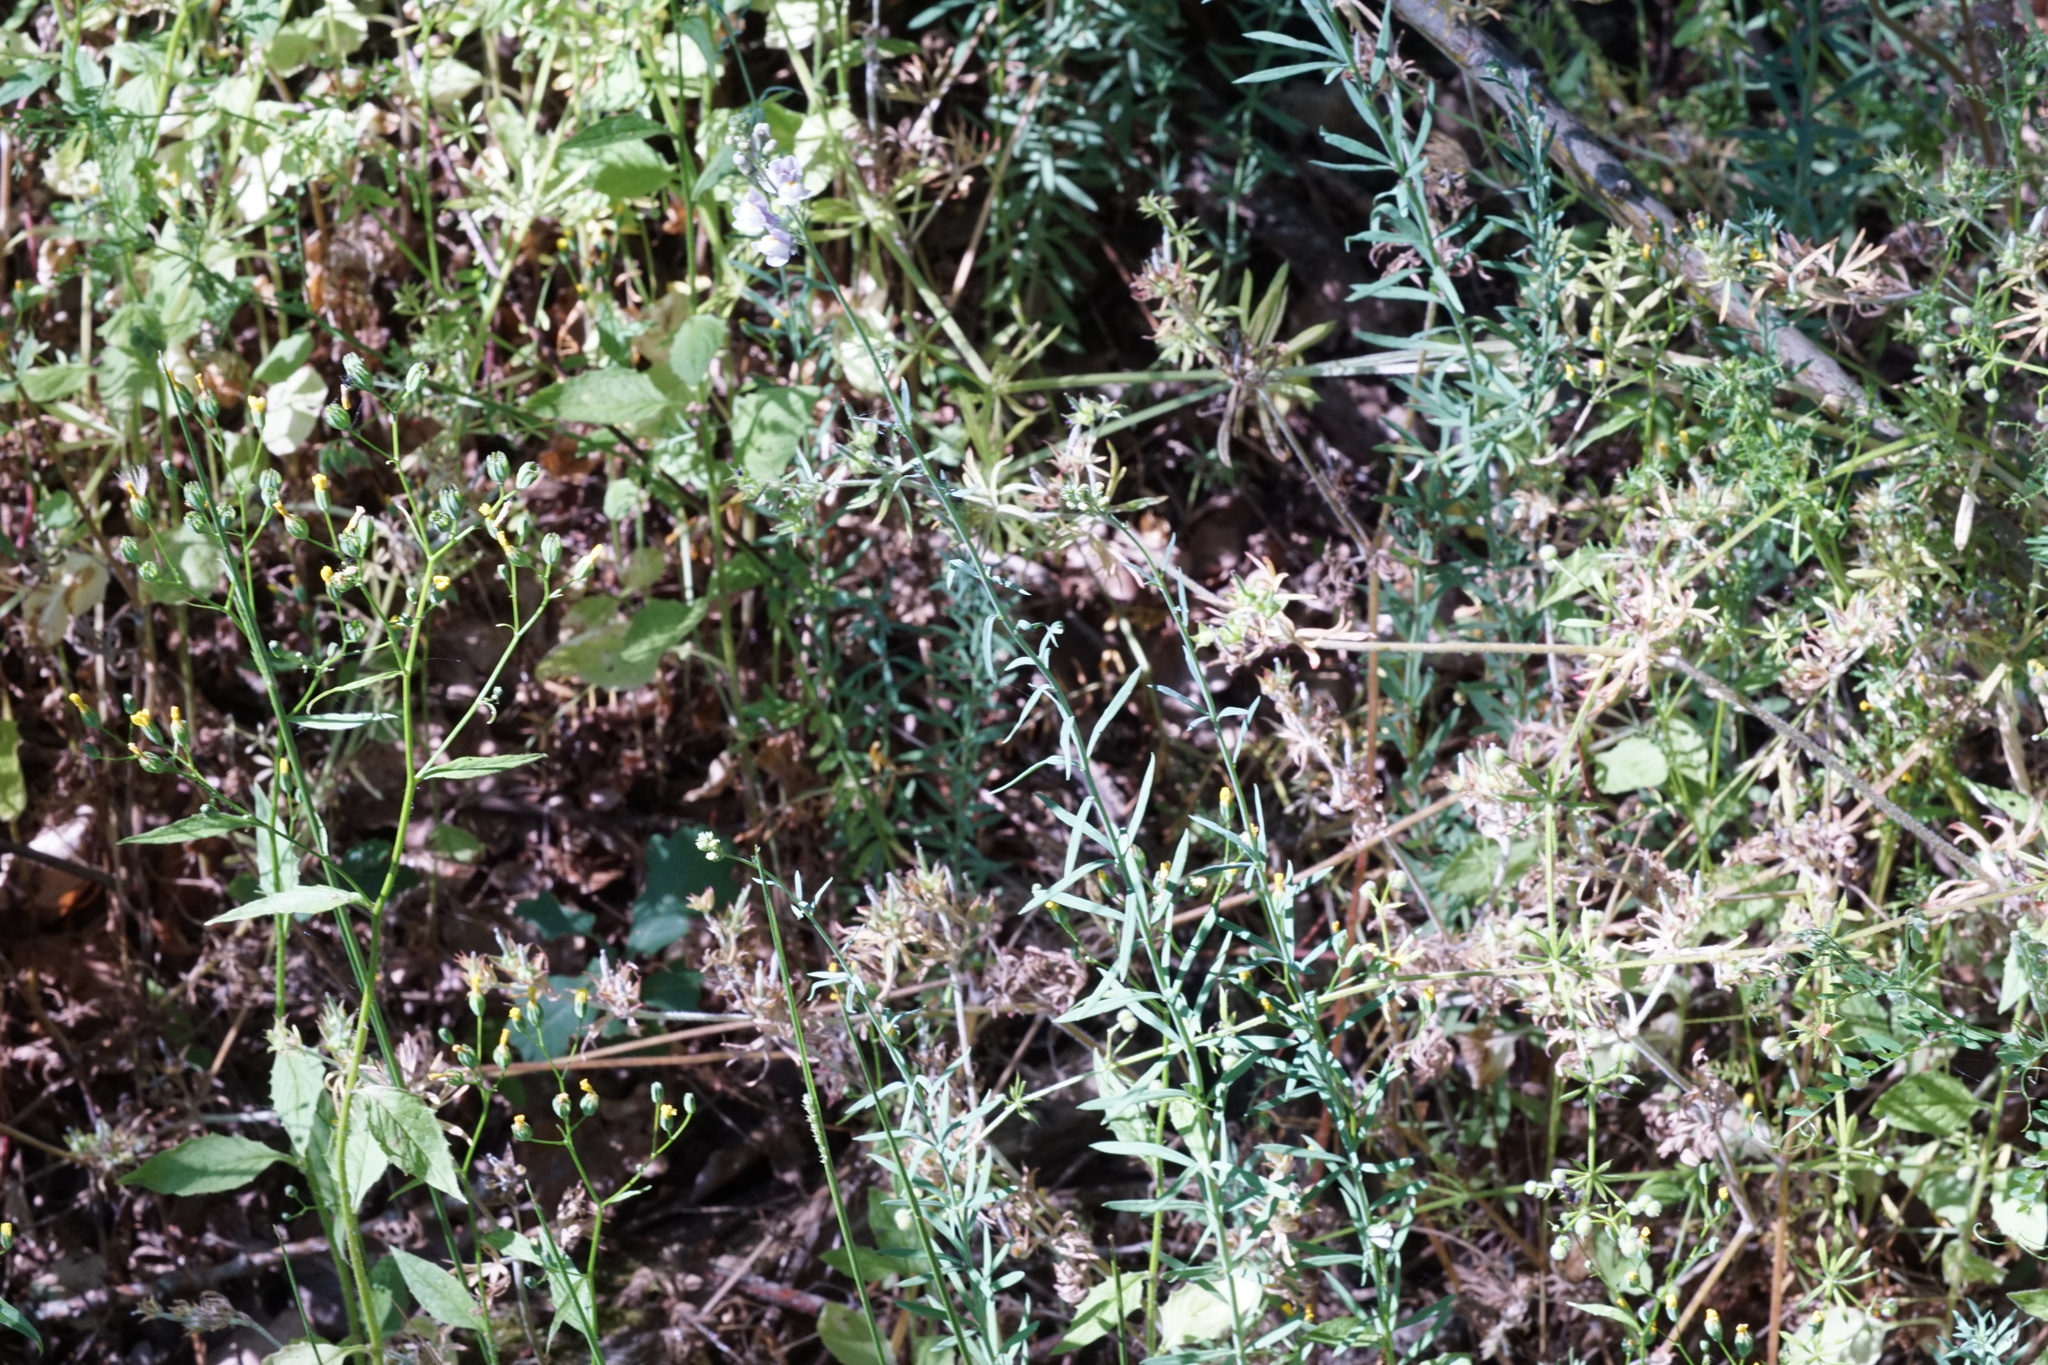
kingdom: Plantae
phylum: Tracheophyta
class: Magnoliopsida
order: Lamiales
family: Plantaginaceae
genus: Linaria
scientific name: Linaria repens
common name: Pale toadflax
